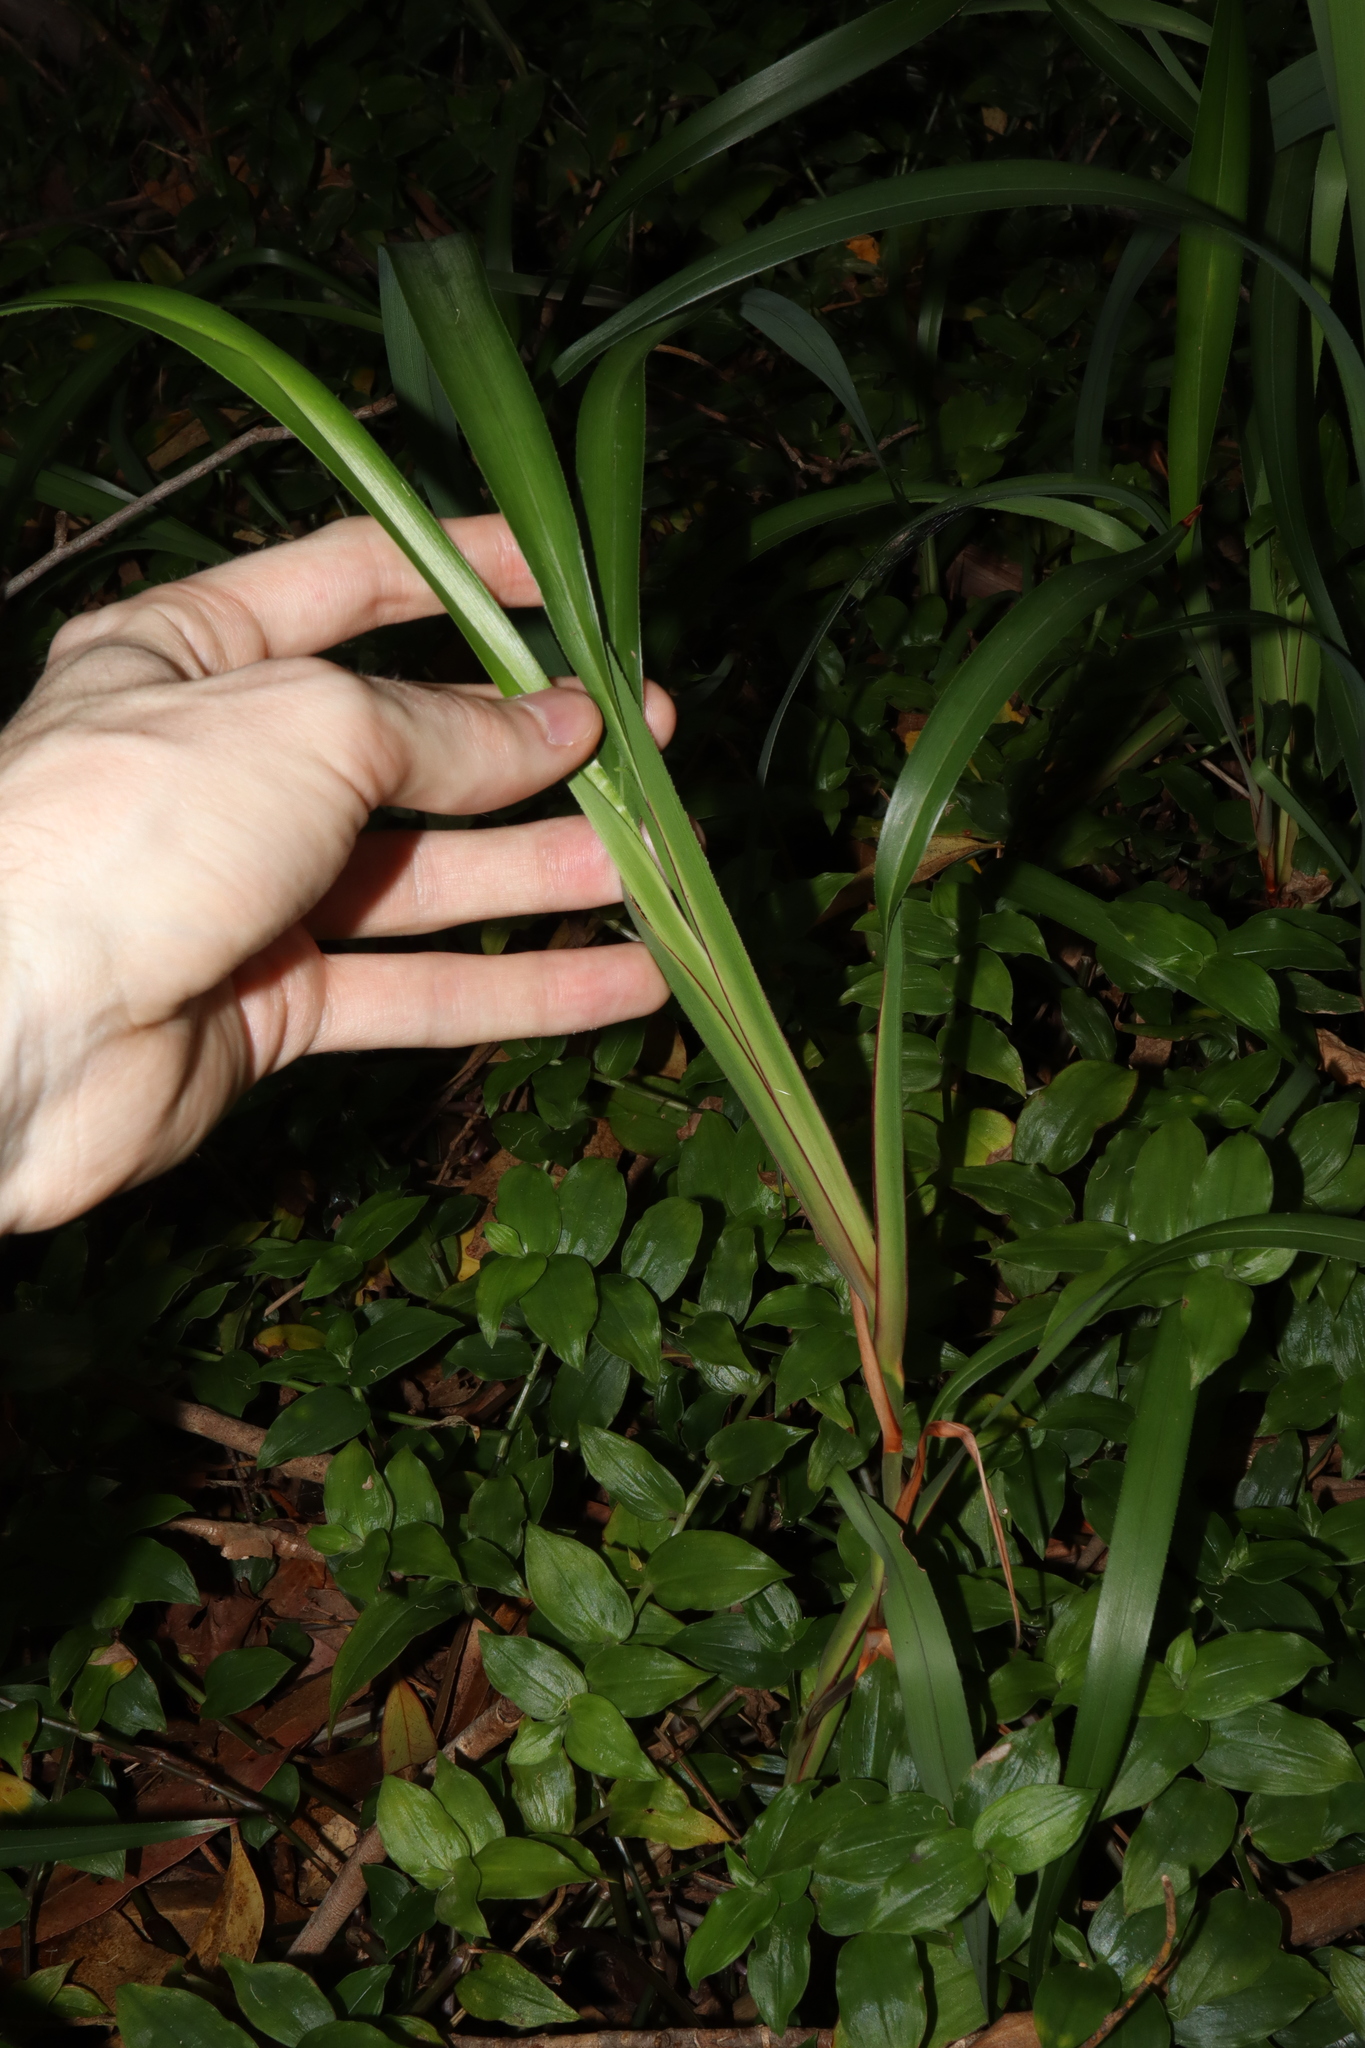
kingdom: Plantae
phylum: Tracheophyta
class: Liliopsida
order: Asparagales
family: Asphodelaceae
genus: Dianella
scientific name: Dianella caerulea
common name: Blue flax-lily
